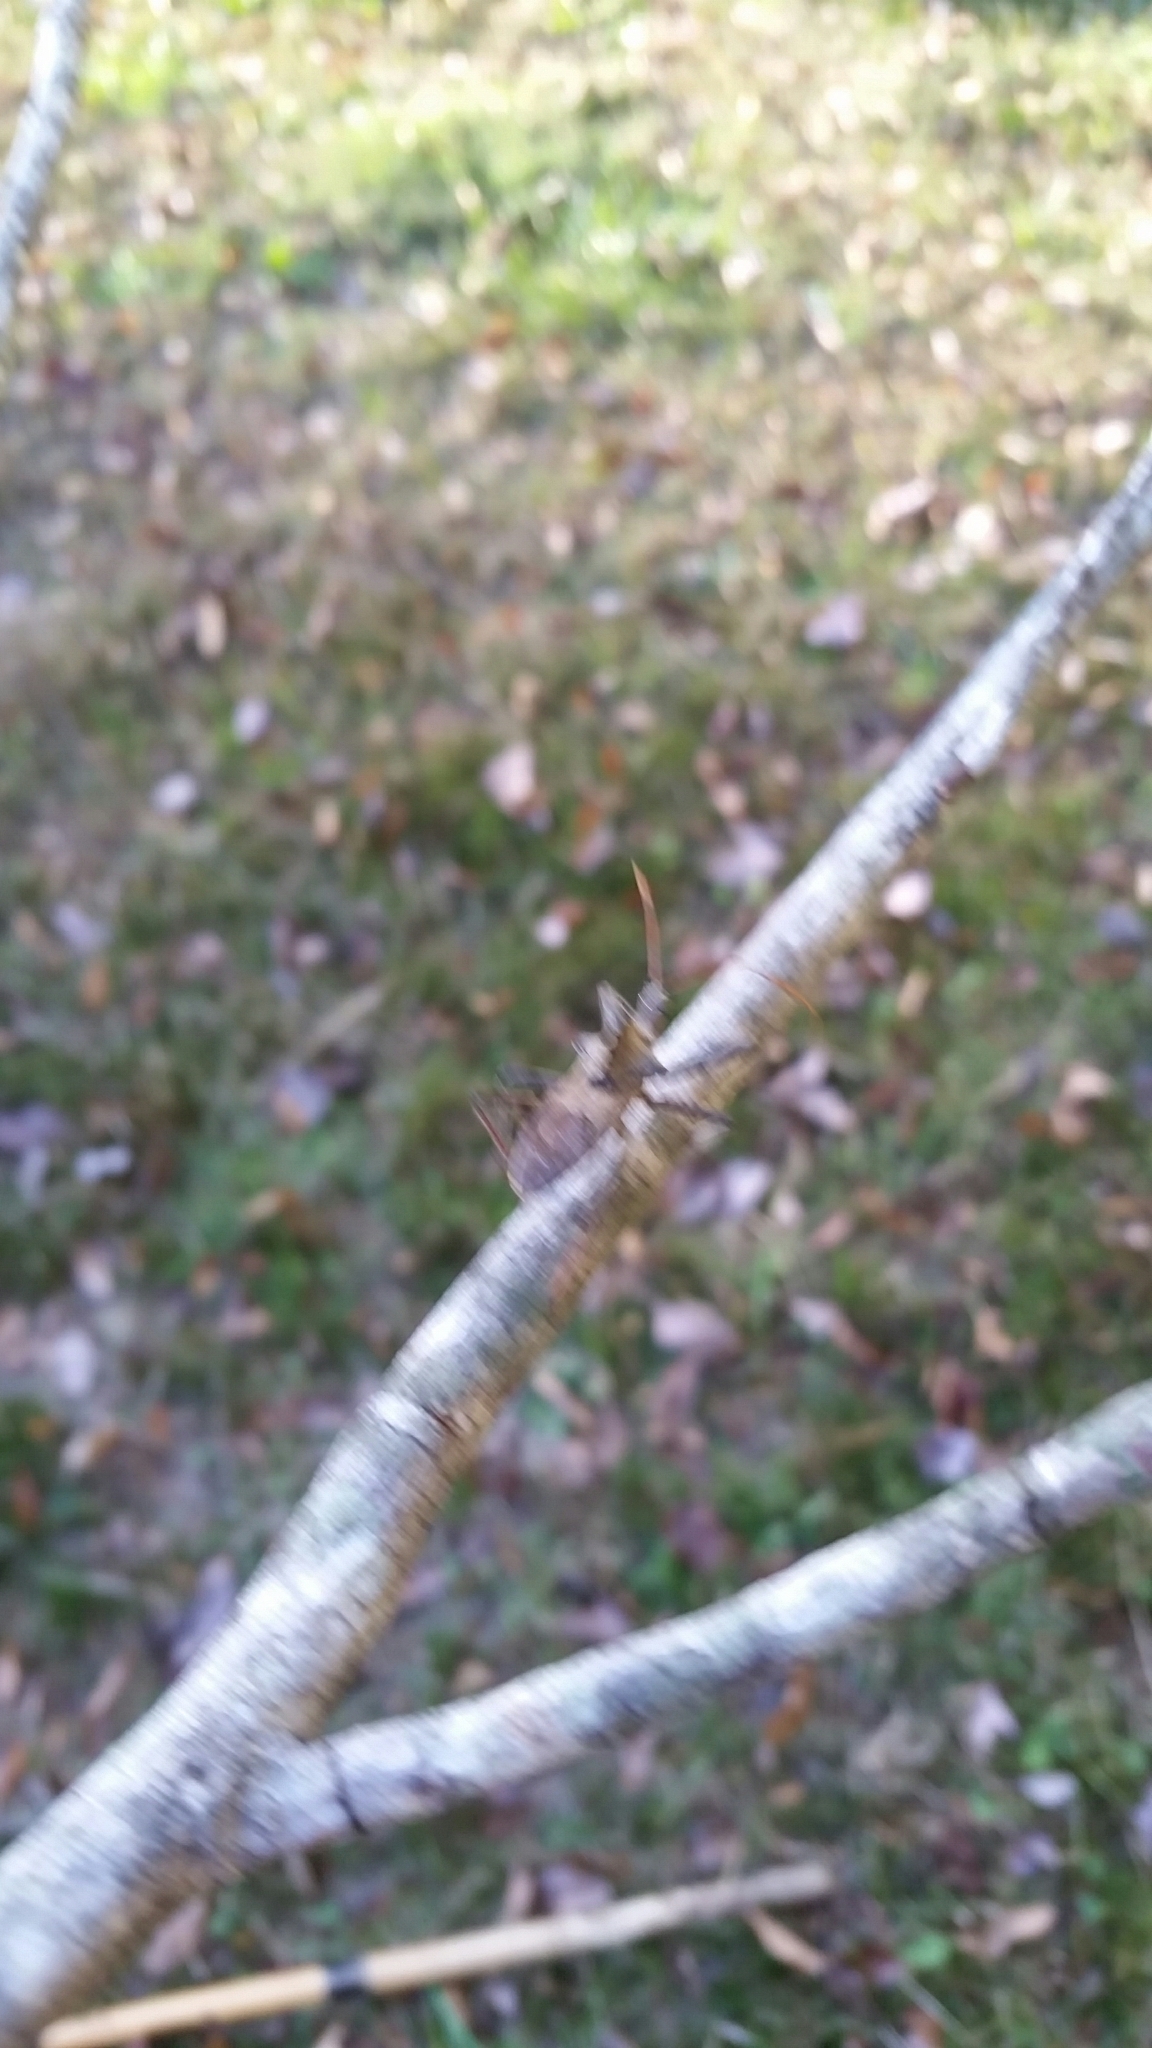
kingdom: Animalia
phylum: Arthropoda
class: Insecta
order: Hemiptera
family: Reduviidae
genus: Arilus
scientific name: Arilus cristatus
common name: North american wheel bug
